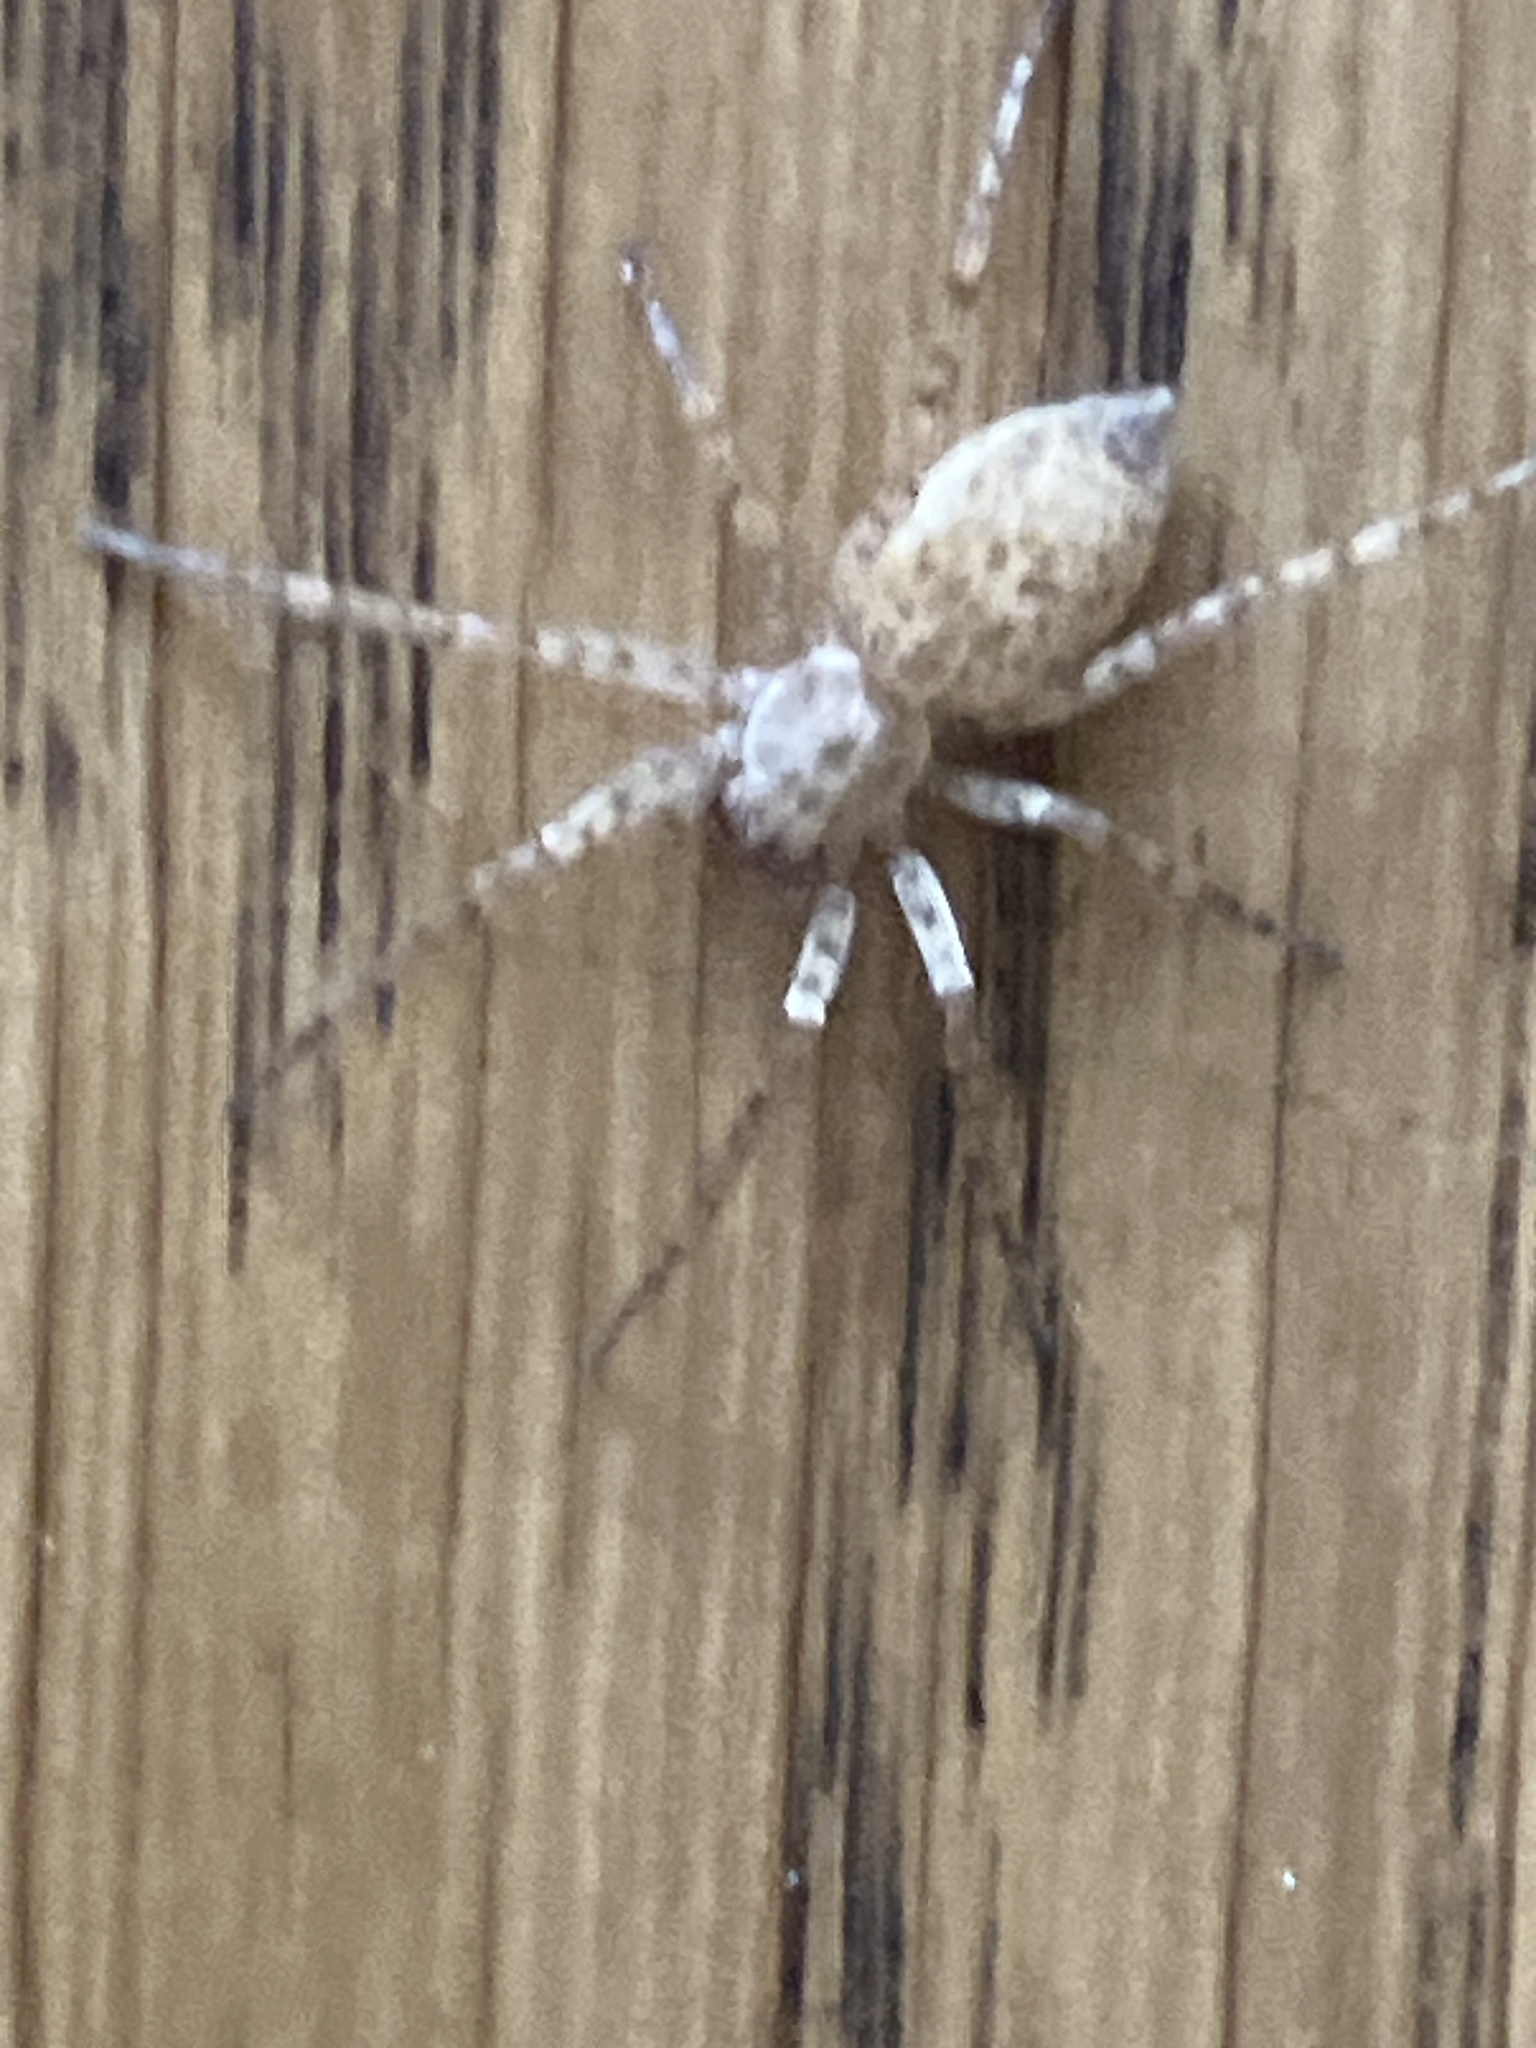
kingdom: Animalia
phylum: Arthropoda
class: Arachnida
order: Araneae
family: Anyphaenidae
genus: Anyphaena
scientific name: Anyphaena numida
